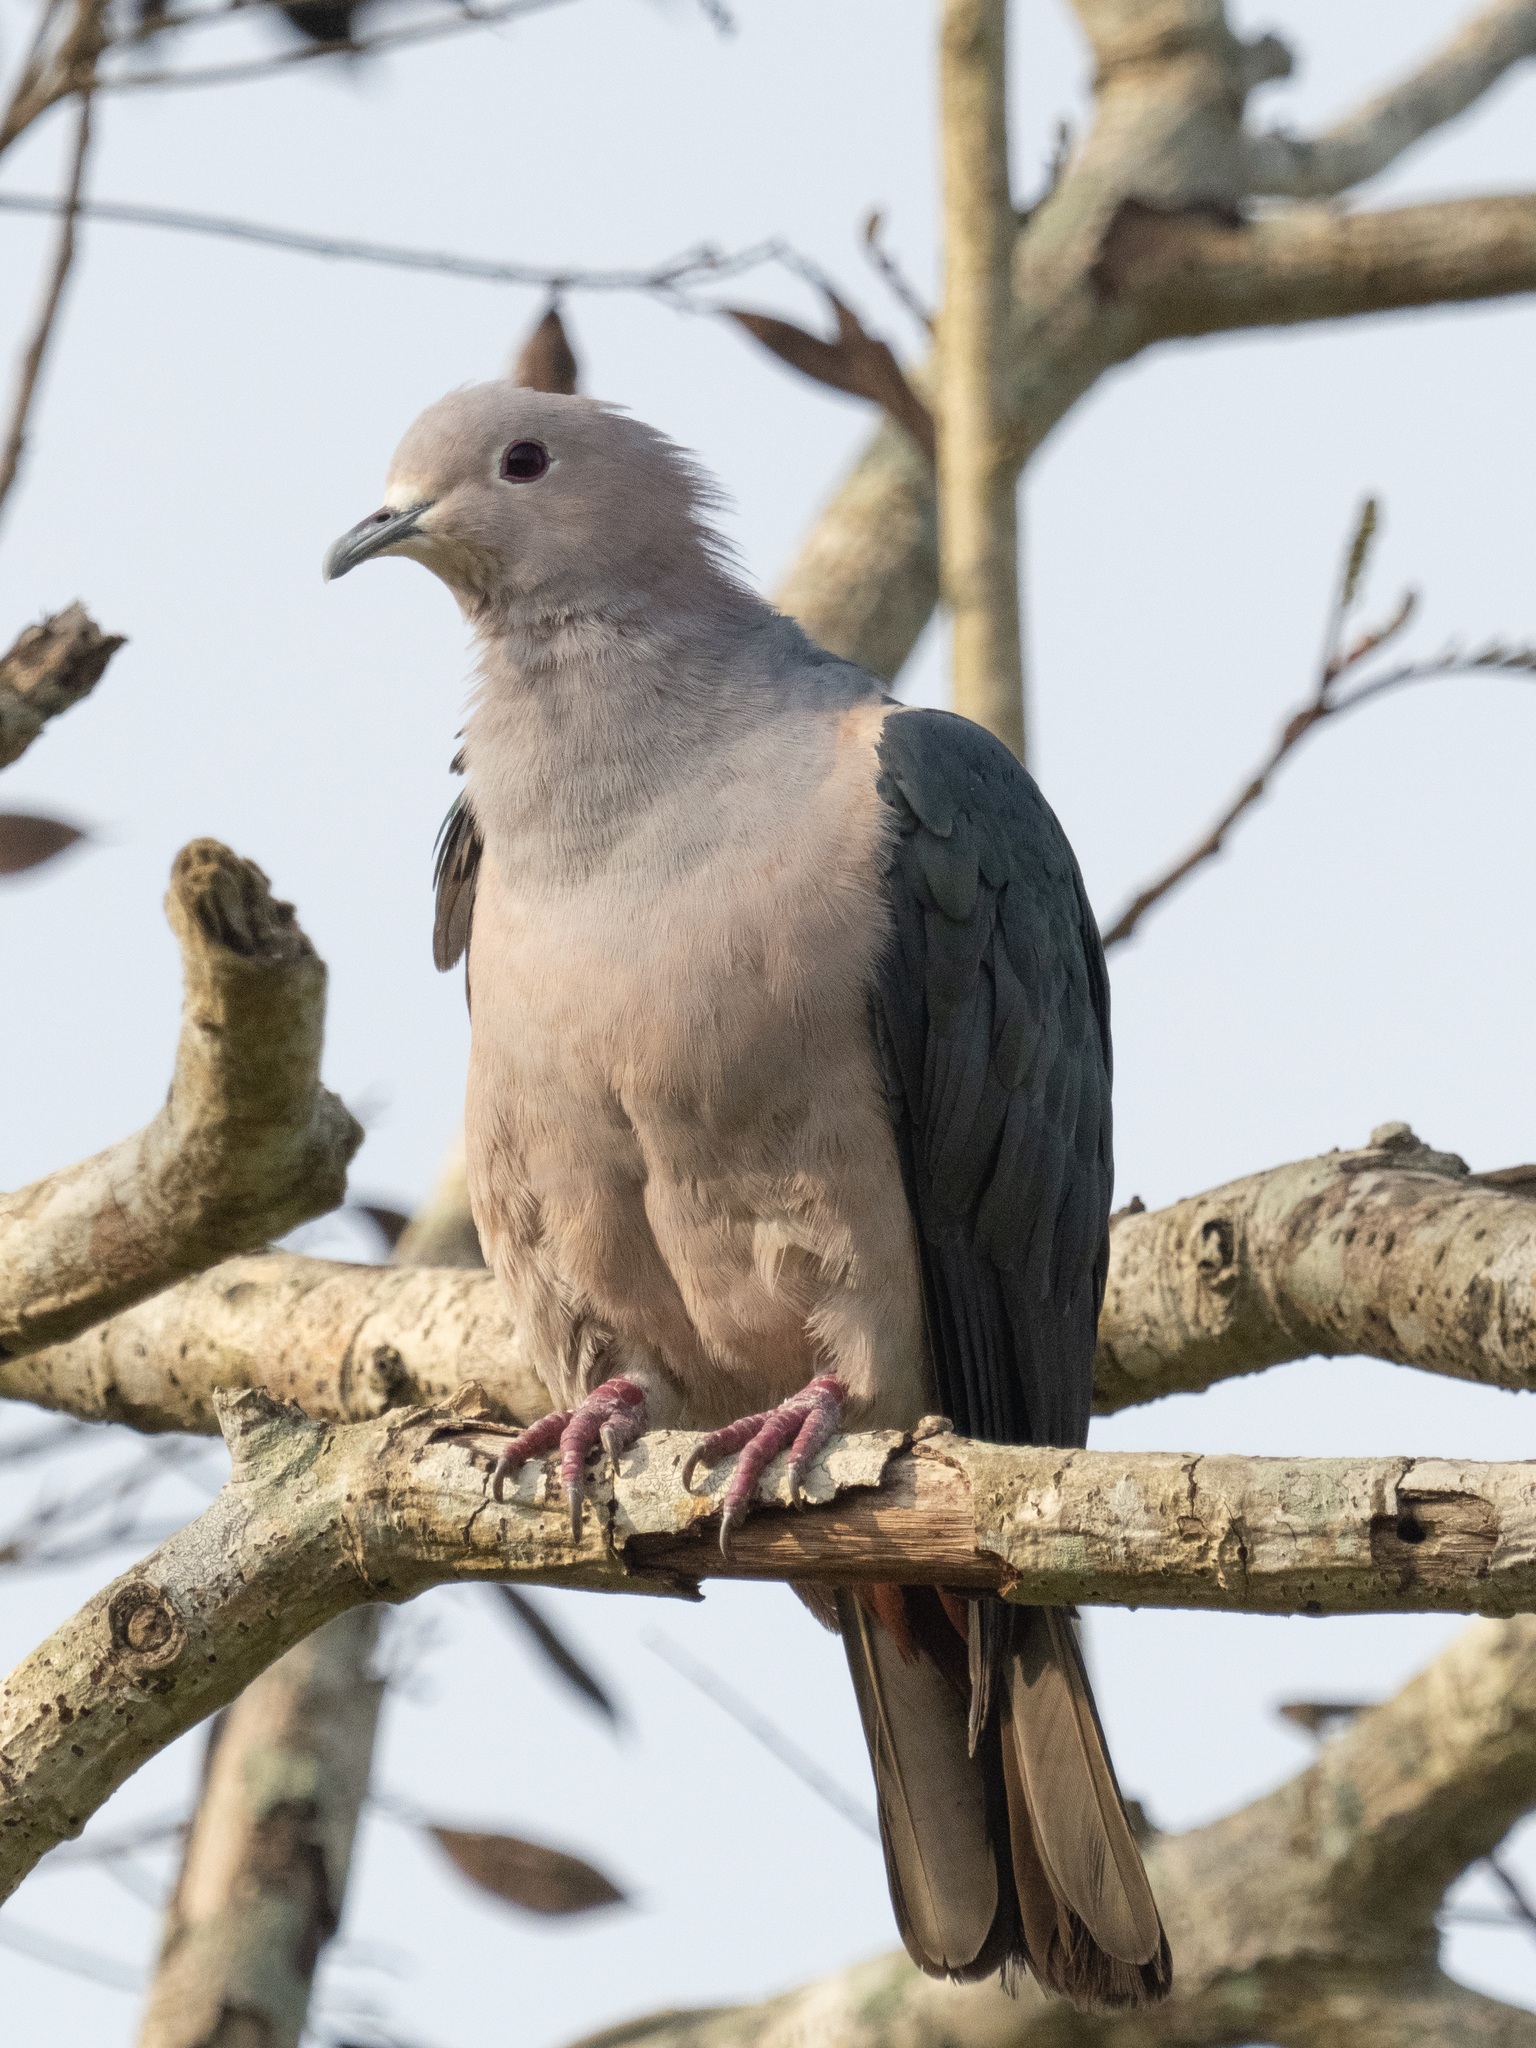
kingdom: Animalia
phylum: Chordata
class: Aves
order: Columbiformes
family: Columbidae
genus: Ducula
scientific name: Ducula aenea
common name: Green imperial pigeon
